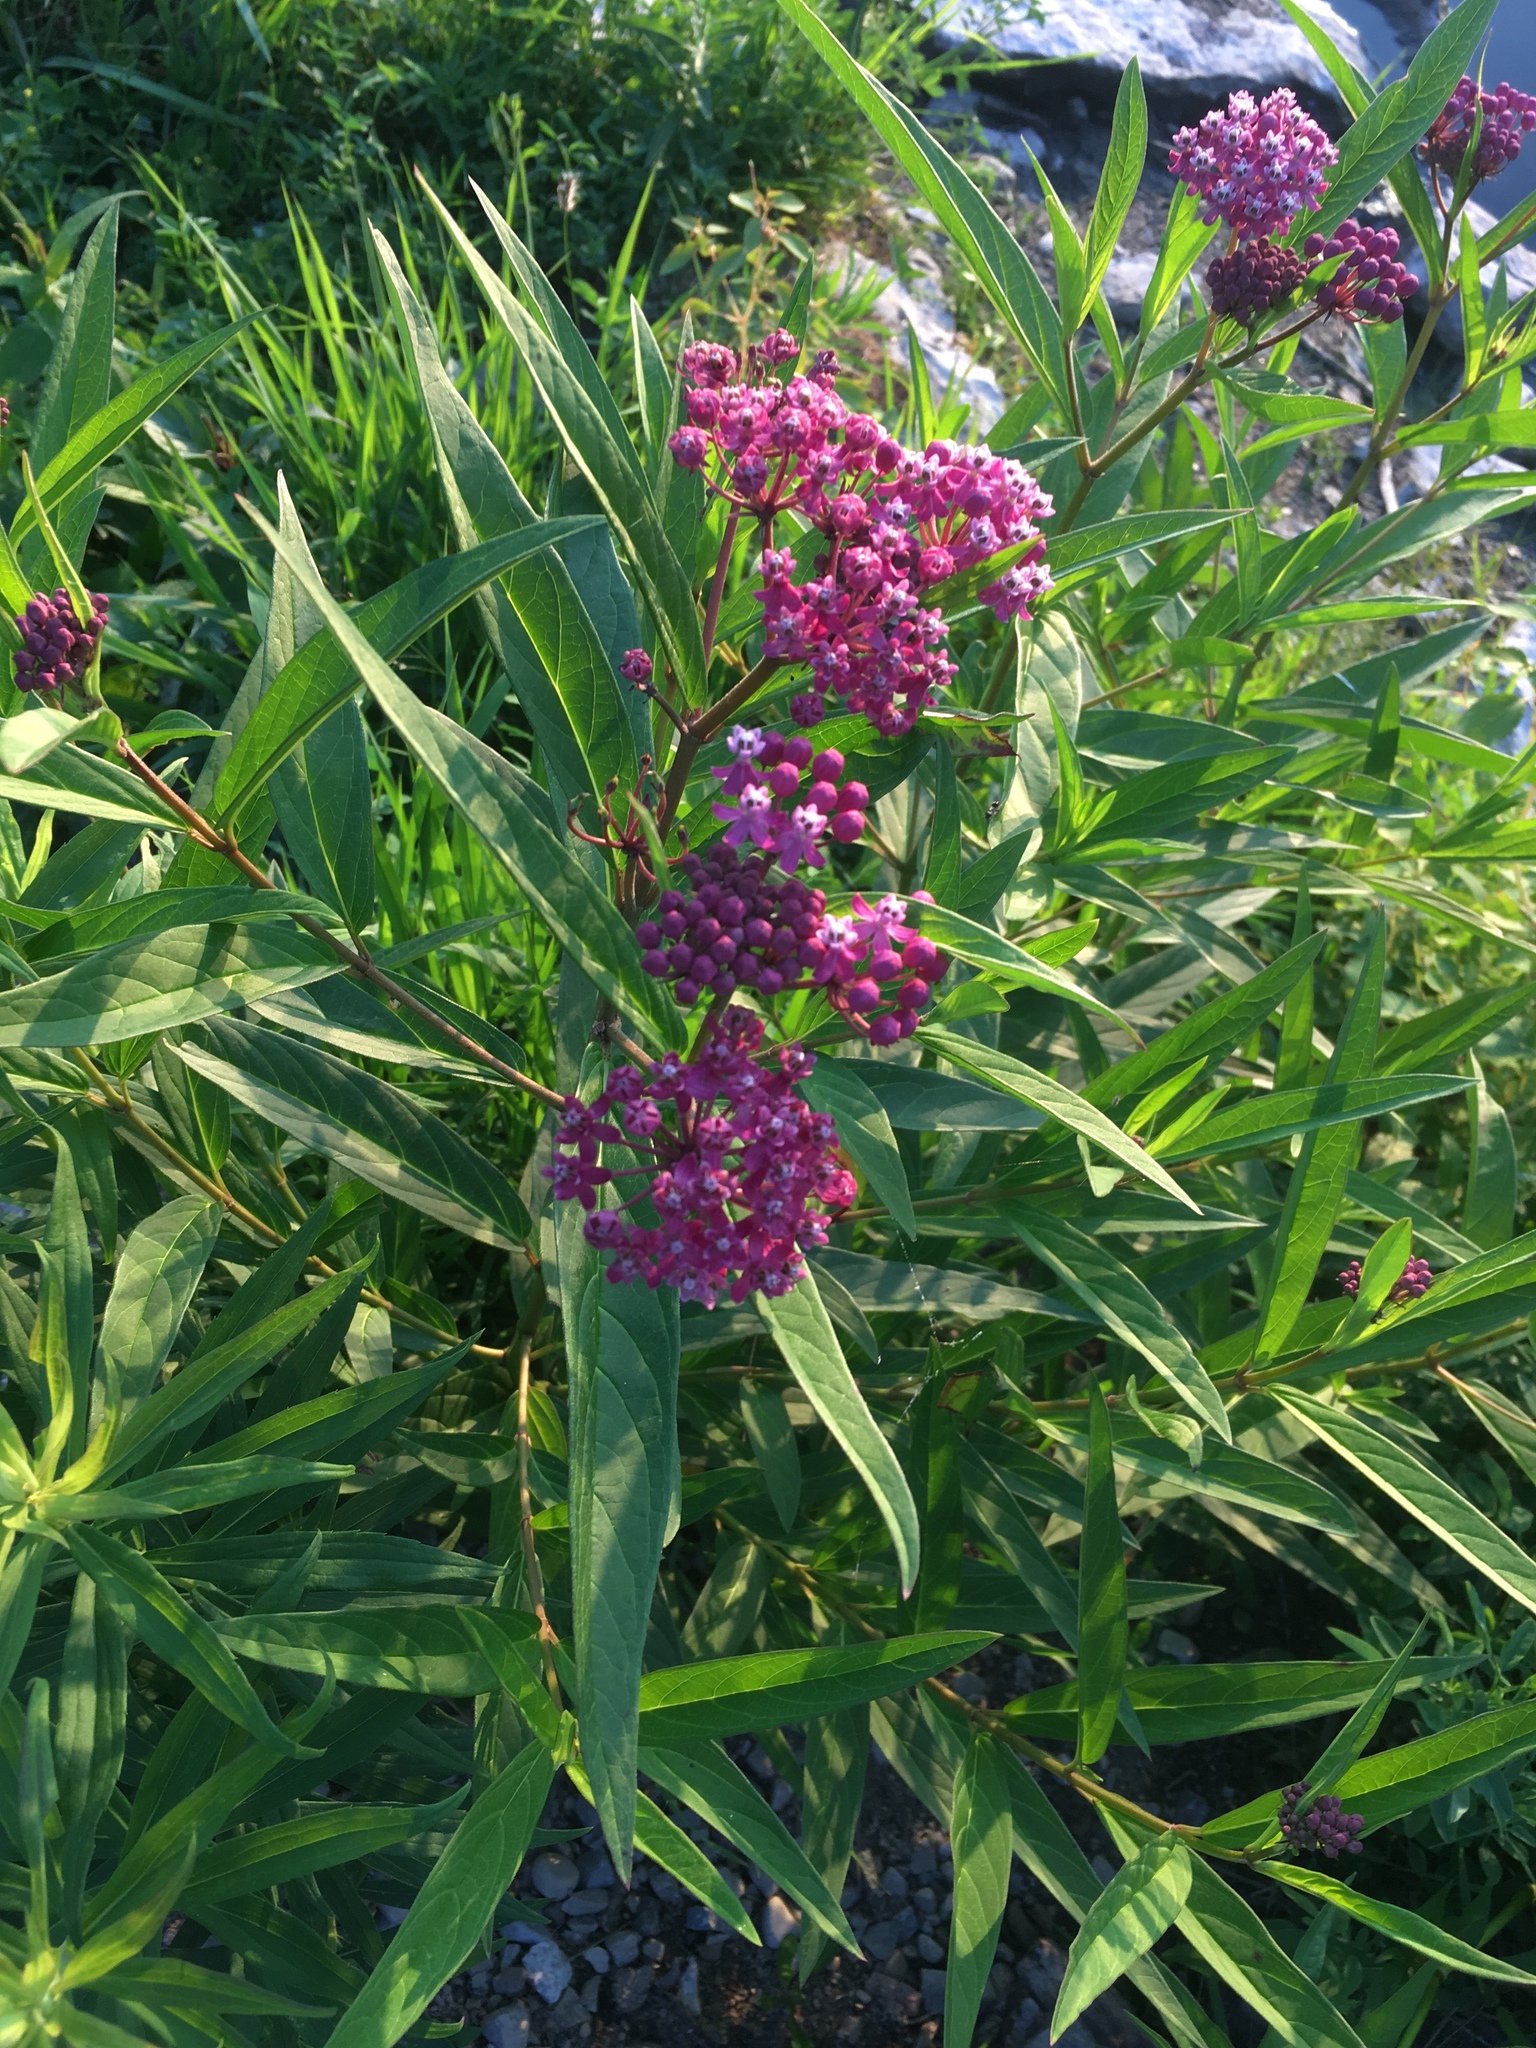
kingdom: Plantae
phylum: Tracheophyta
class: Magnoliopsida
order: Gentianales
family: Apocynaceae
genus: Asclepias
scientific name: Asclepias incarnata
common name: Swamp milkweed
